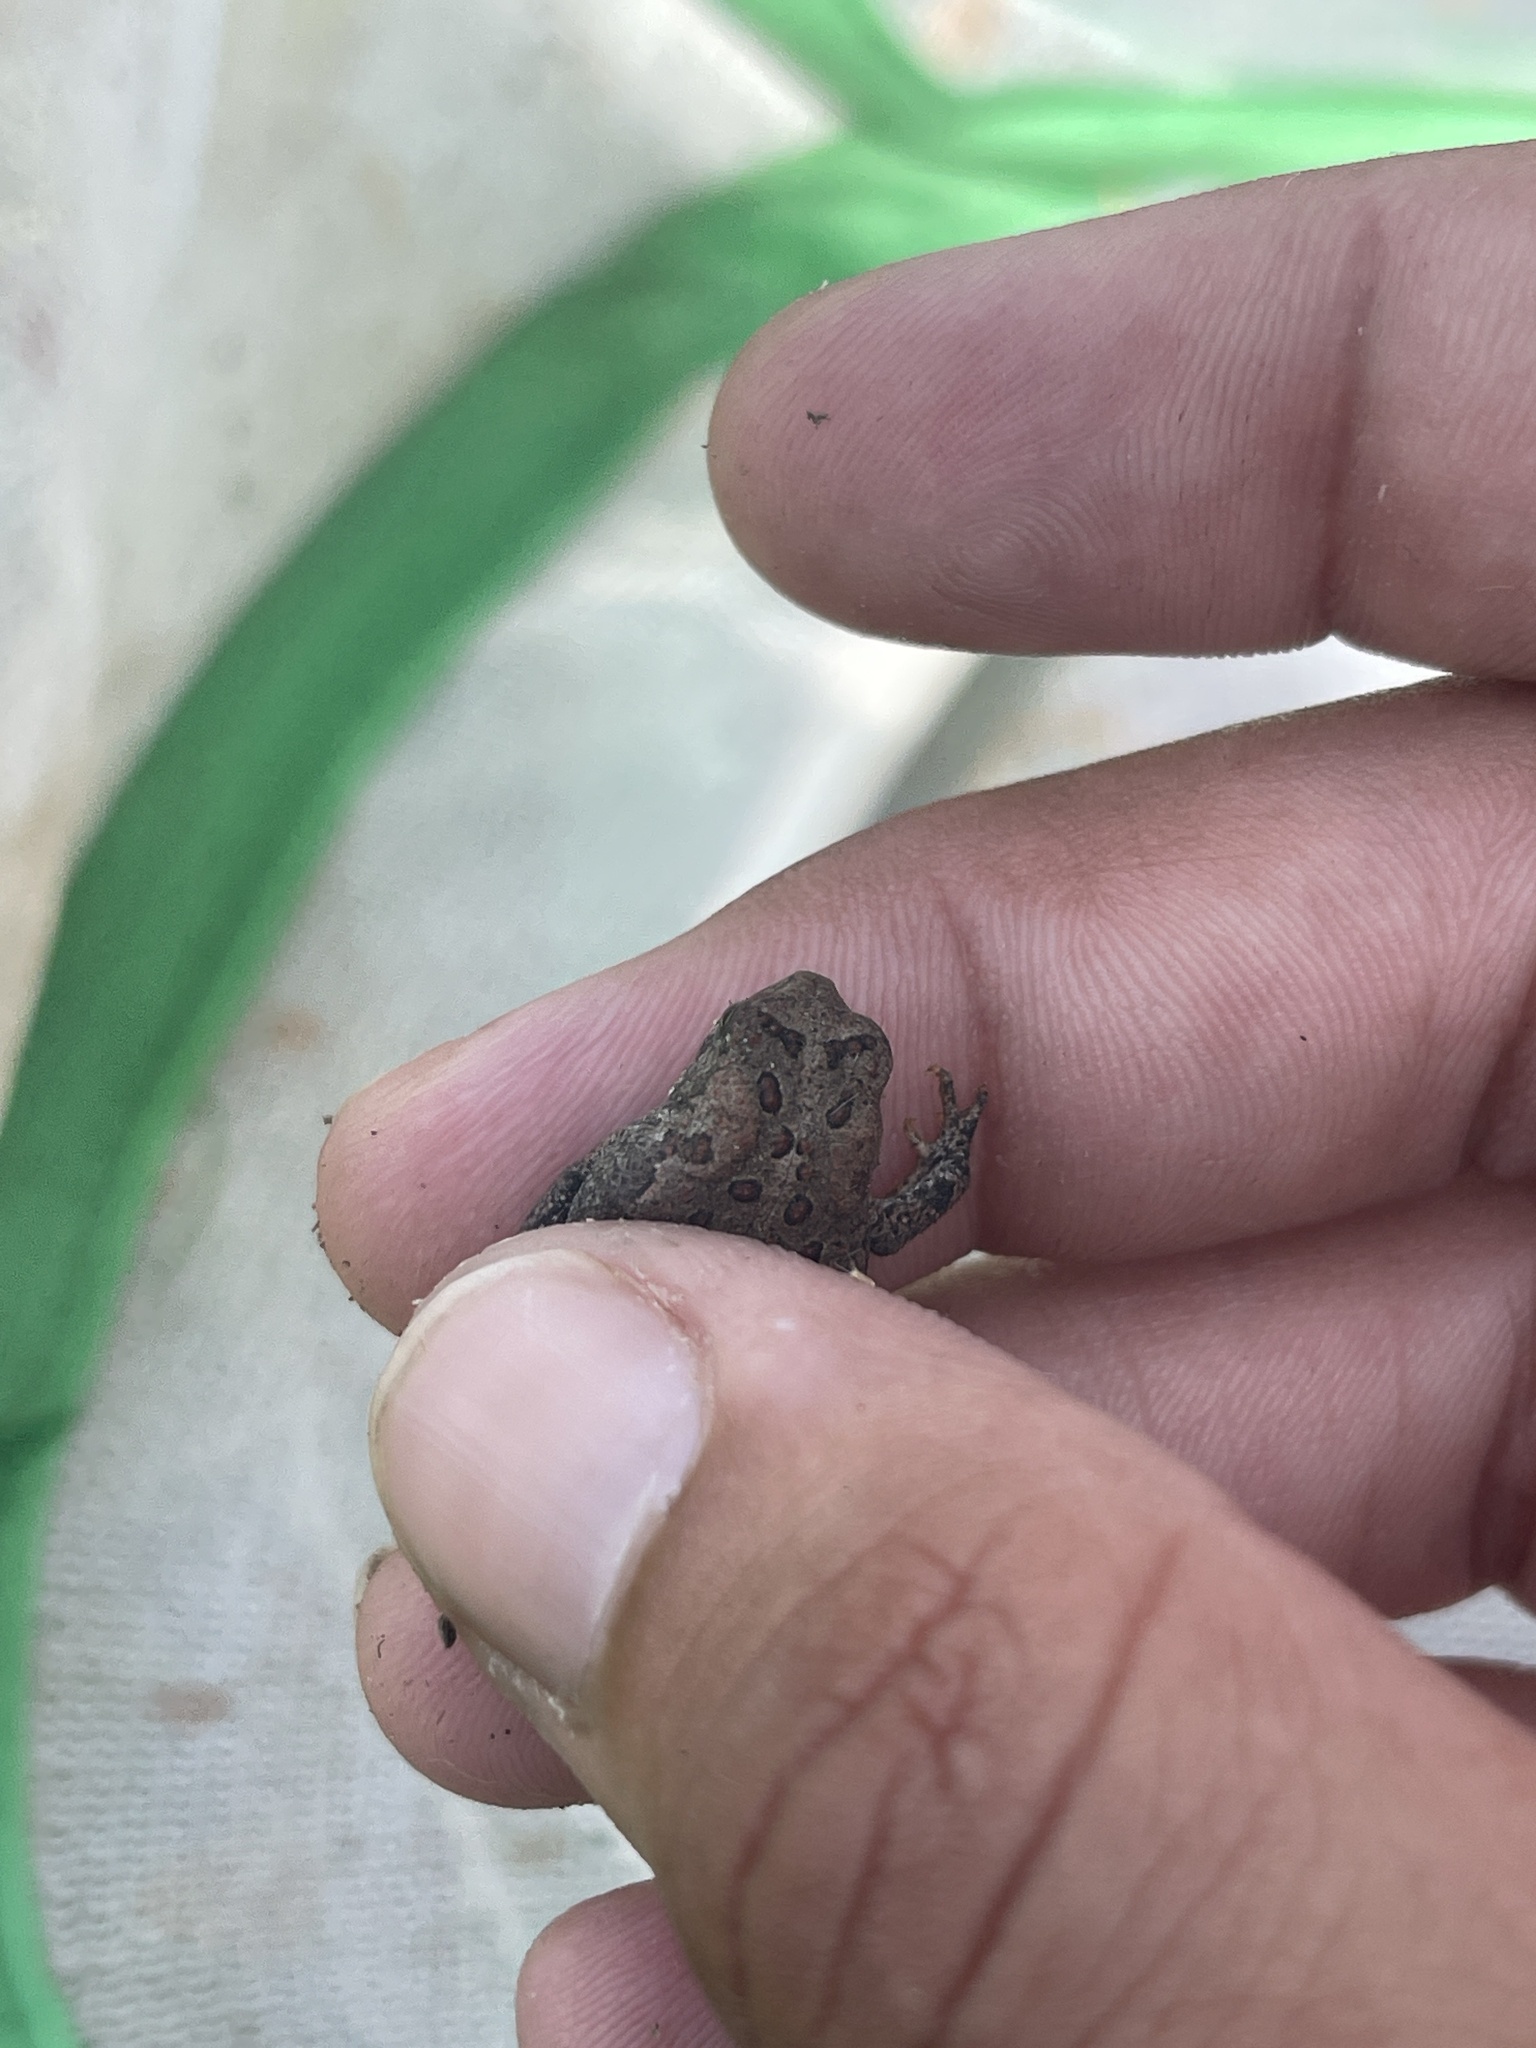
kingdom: Animalia
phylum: Chordata
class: Amphibia
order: Anura
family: Bufonidae
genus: Anaxyrus
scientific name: Anaxyrus americanus
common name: American toad
